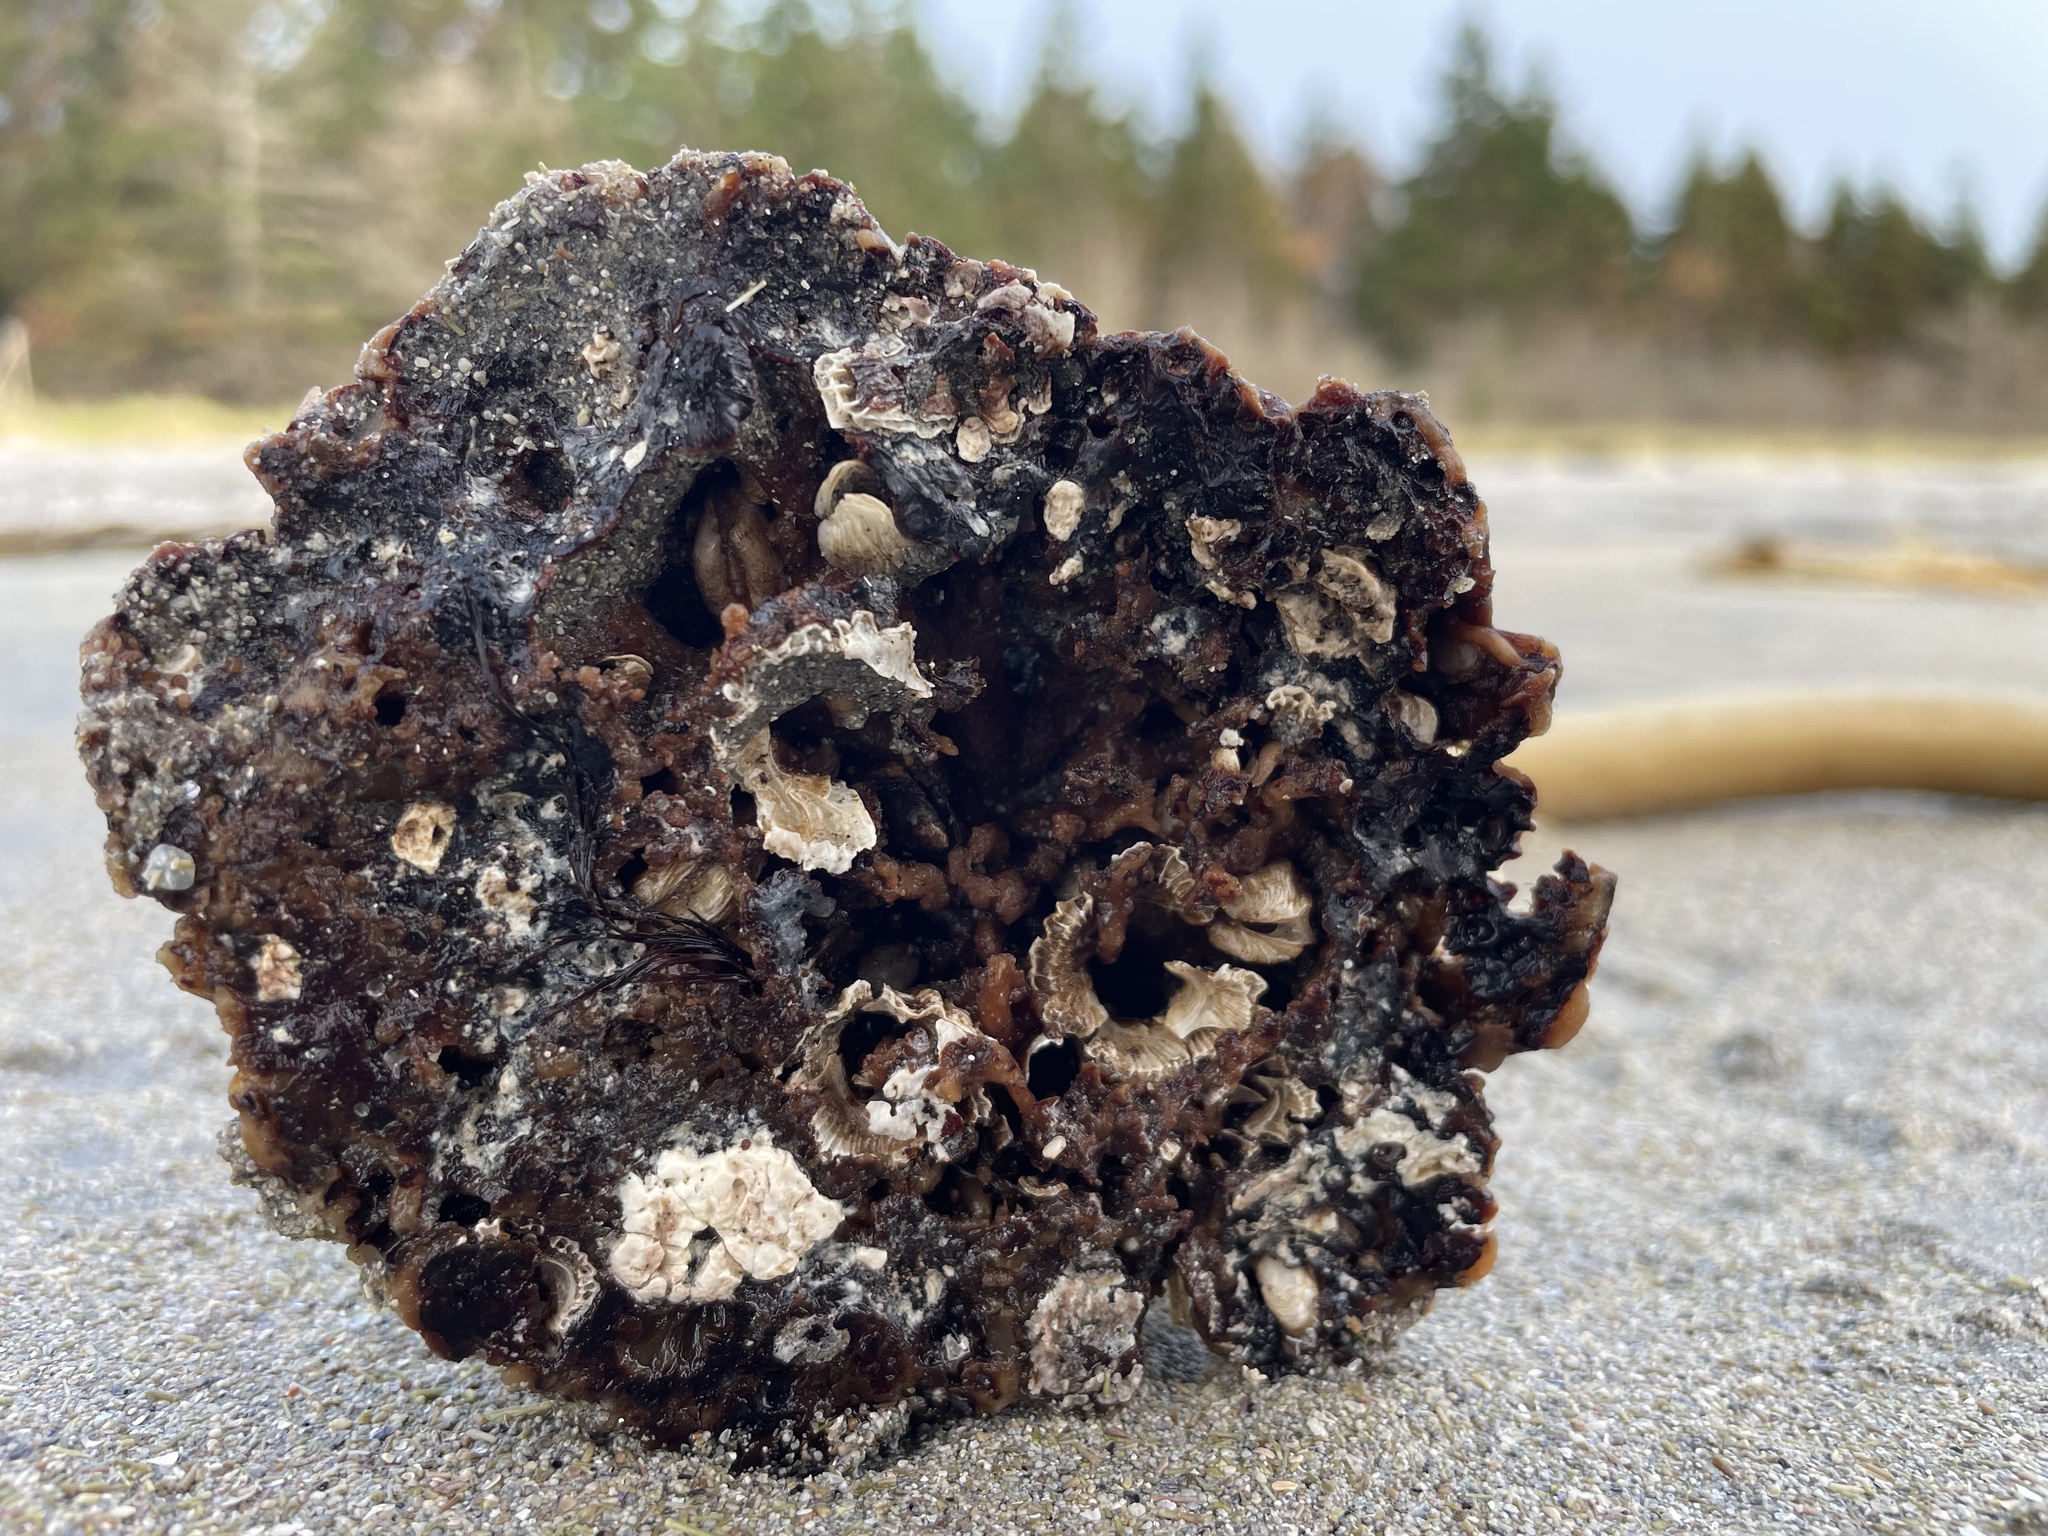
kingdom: Animalia
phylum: Mollusca
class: Bivalvia
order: Adapedonta
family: Hiatellidae
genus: Hiatella
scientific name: Hiatella arctica
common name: Arctic hiatella
